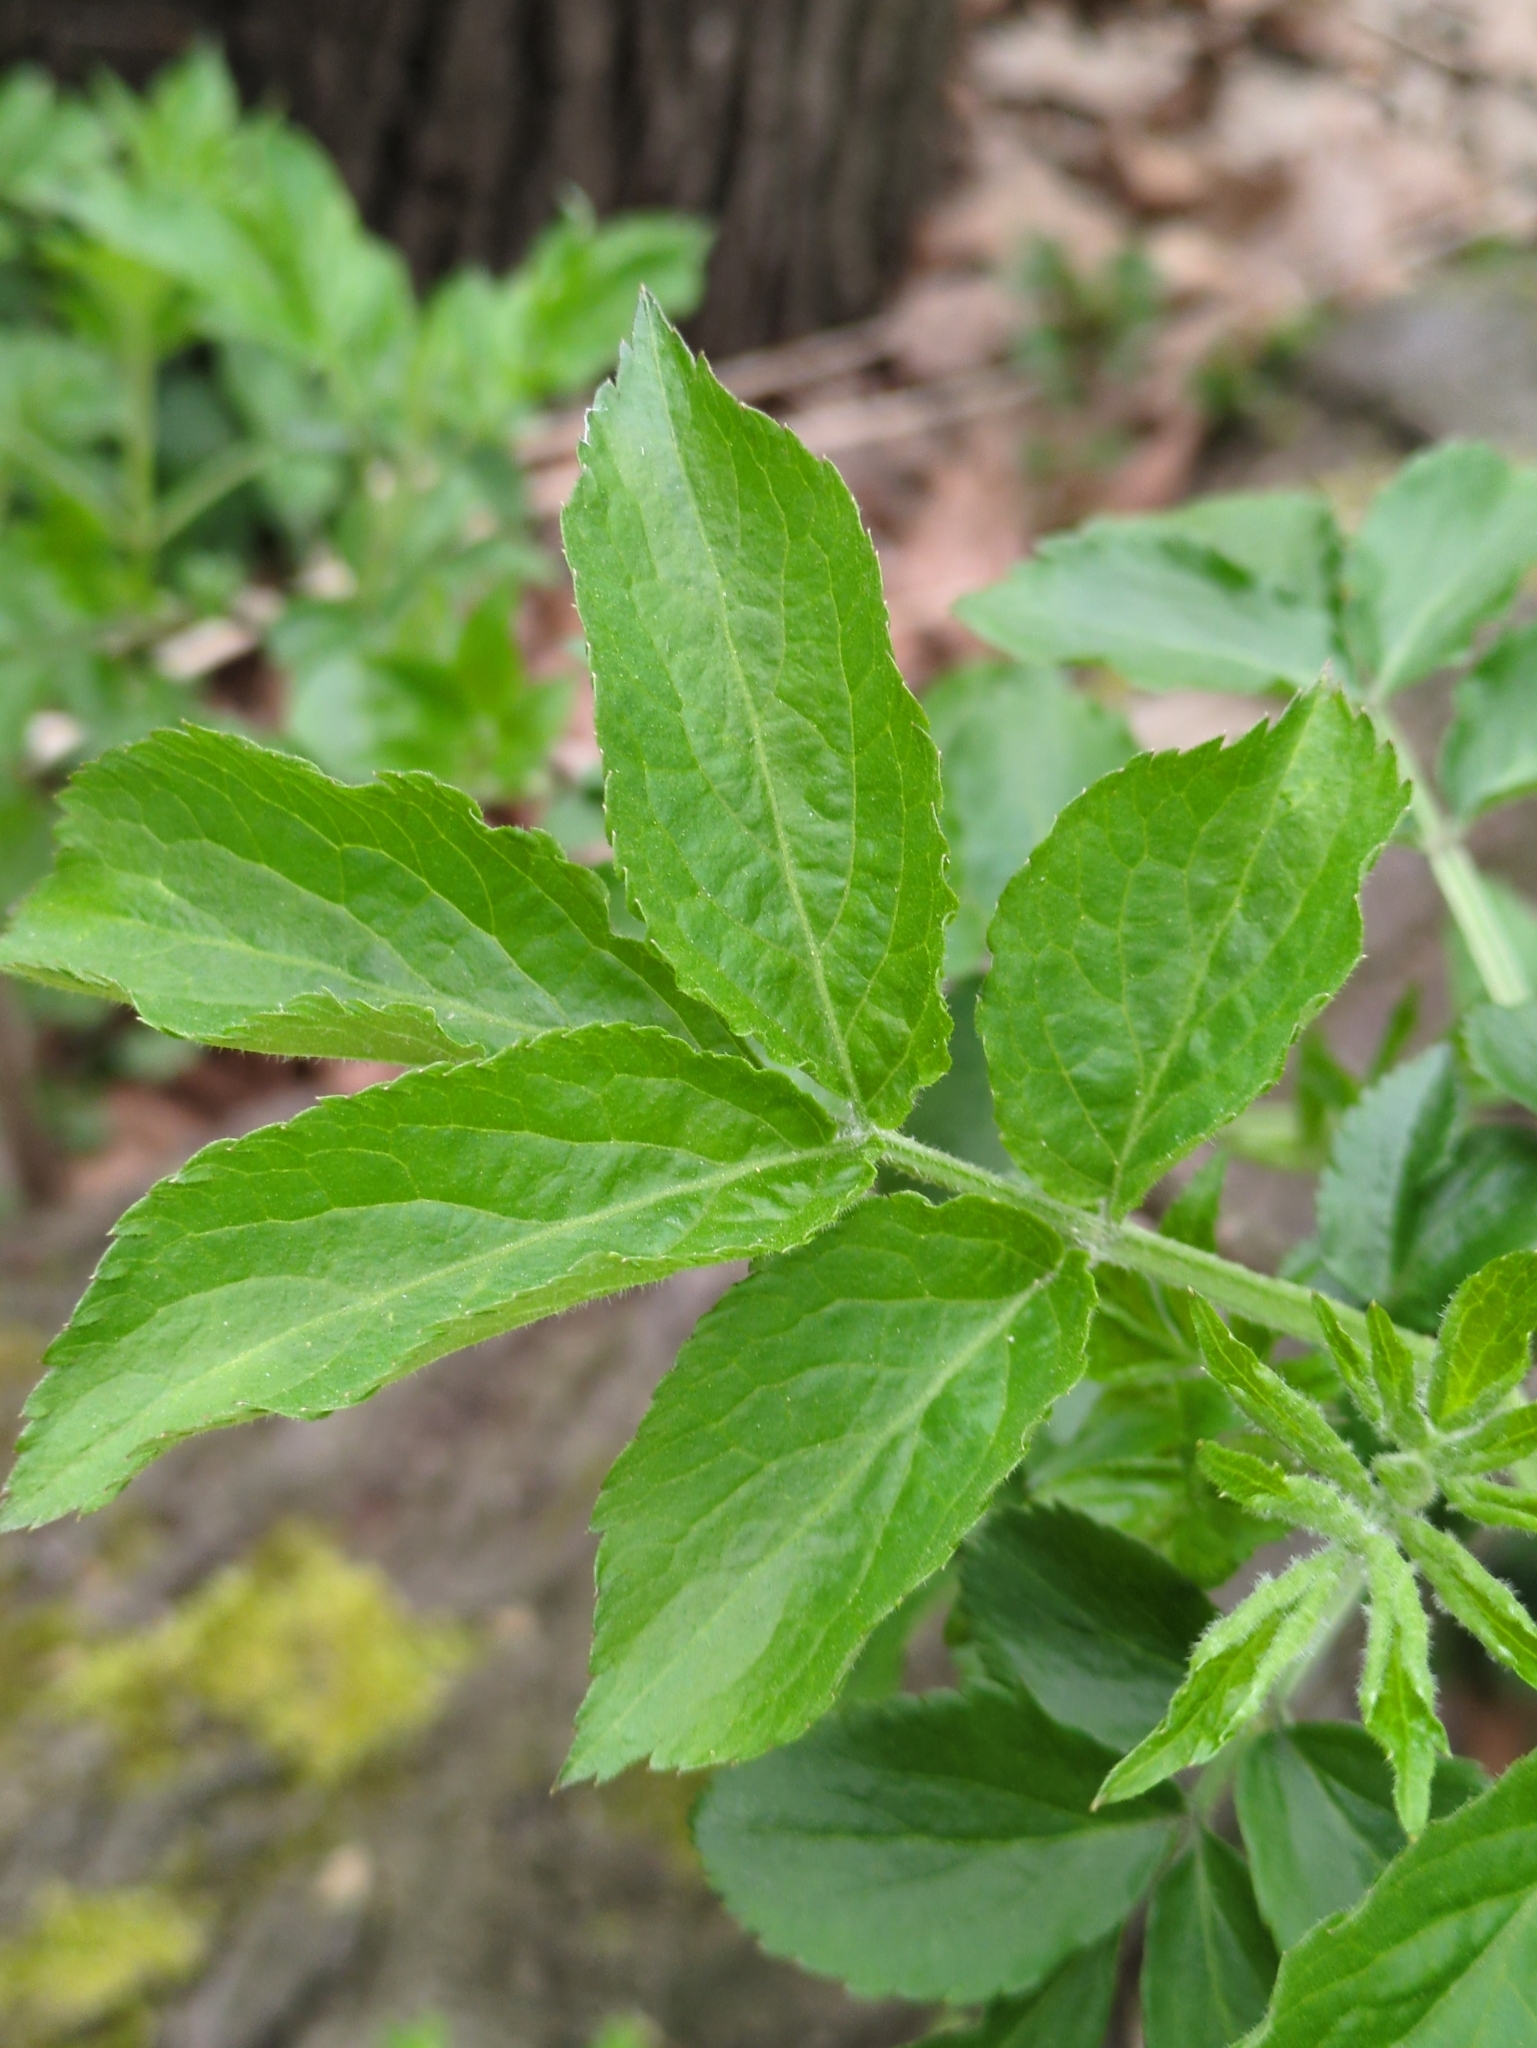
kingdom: Plantae
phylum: Tracheophyta
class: Magnoliopsida
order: Dipsacales
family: Viburnaceae
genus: Sambucus
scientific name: Sambucus nigra
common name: Elder
